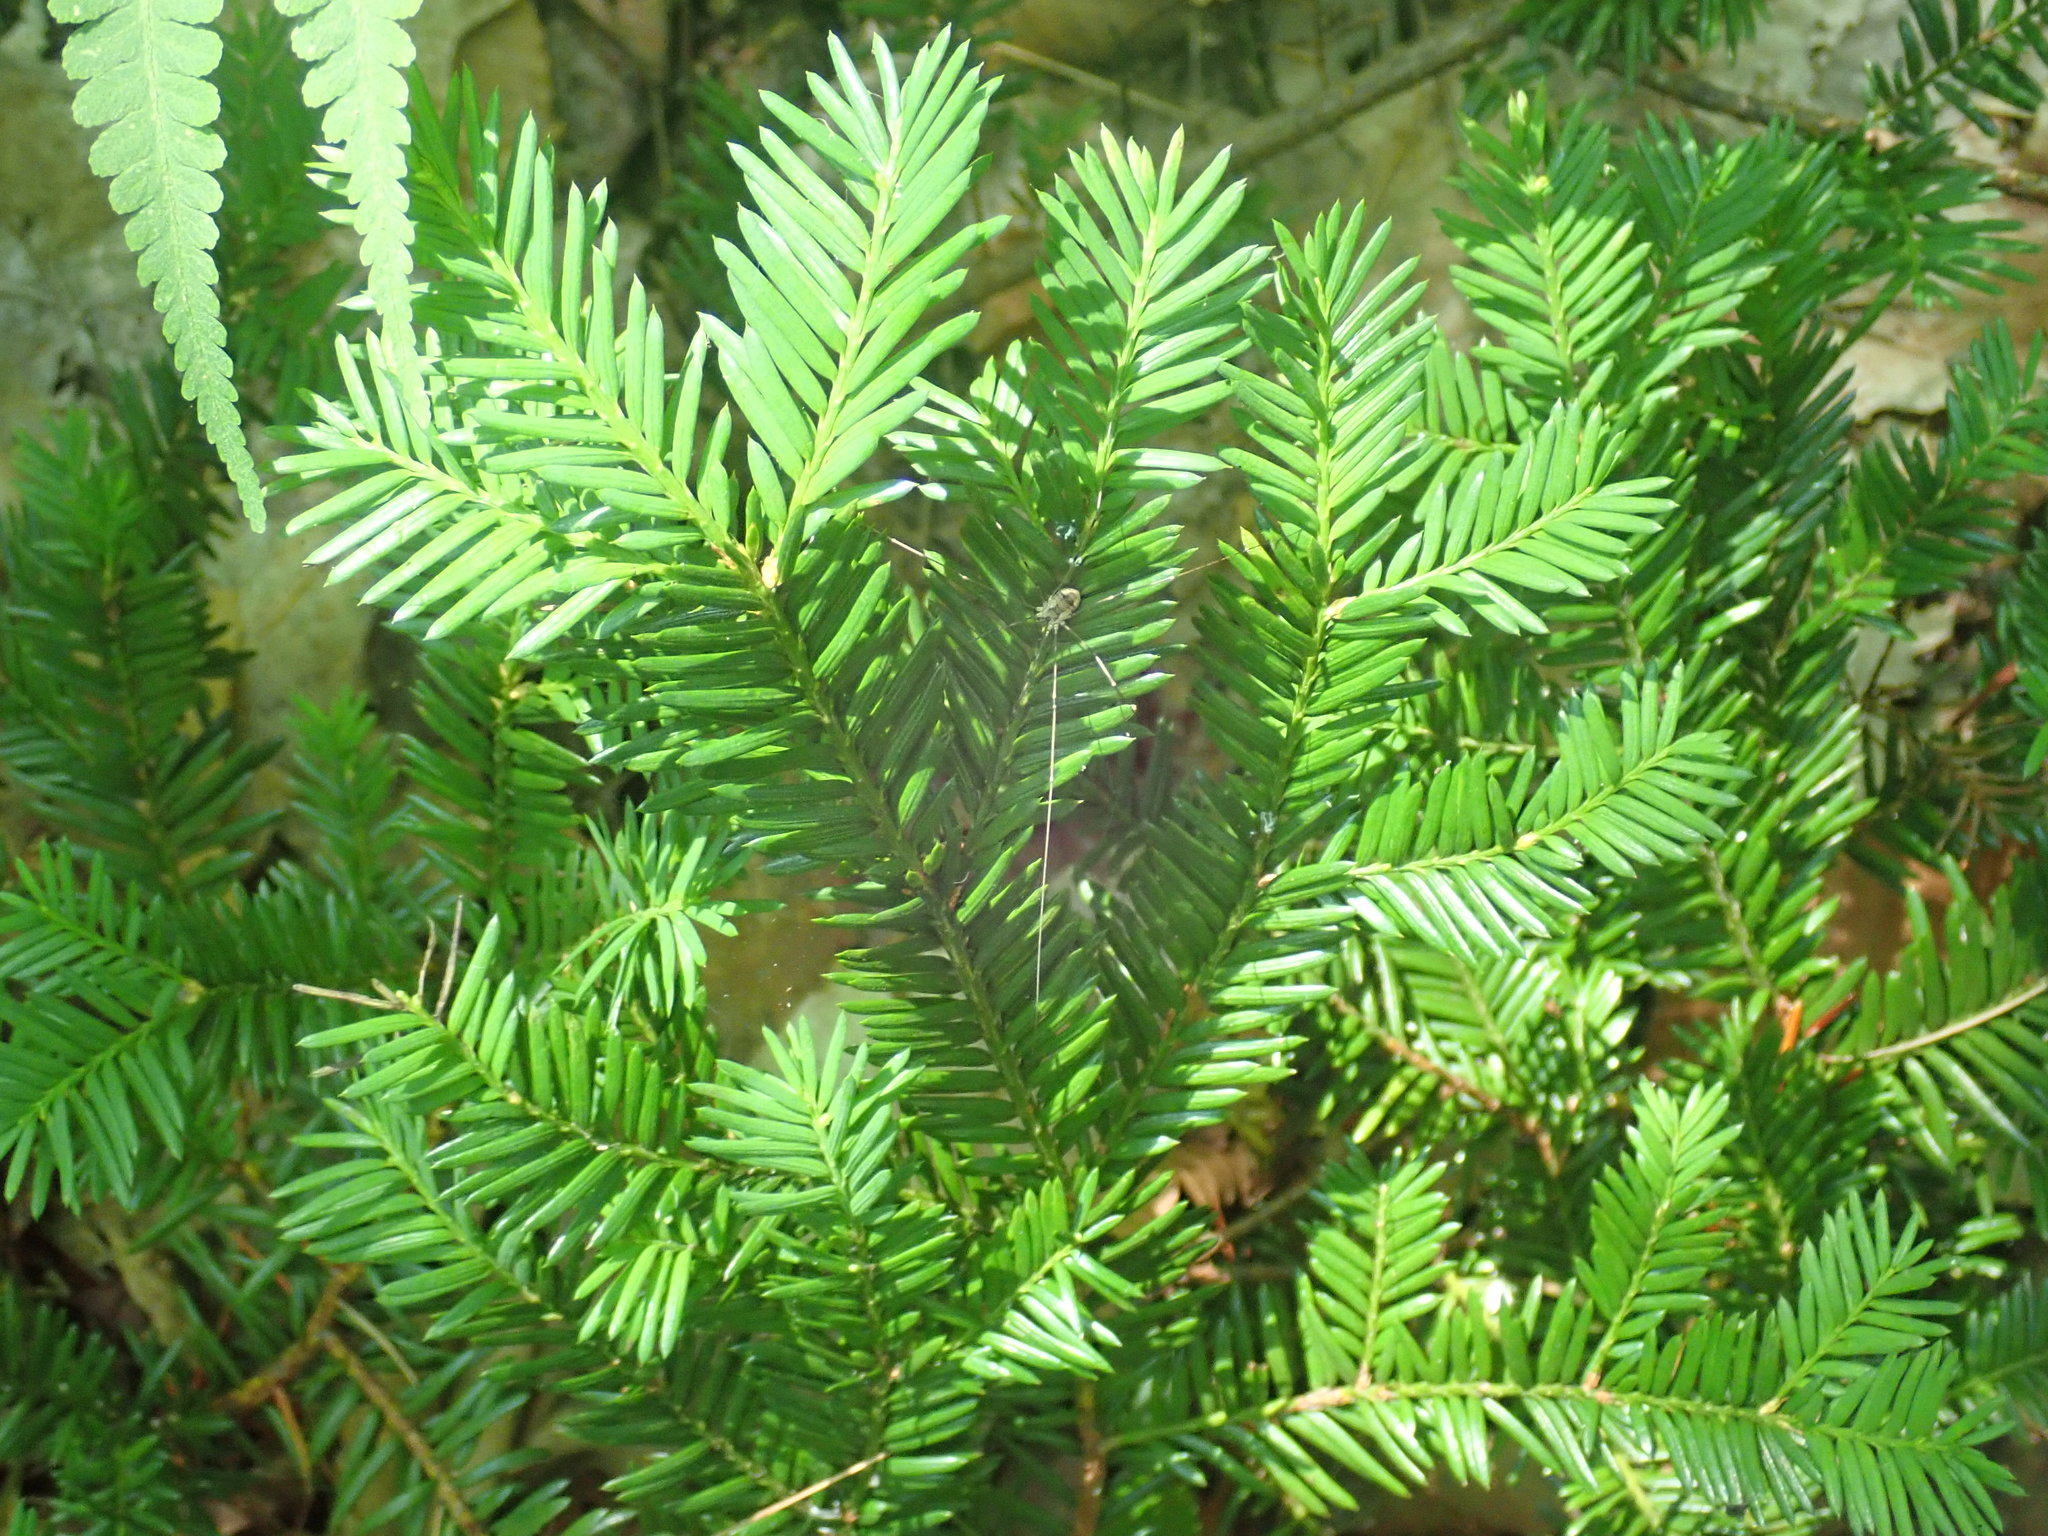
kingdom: Plantae
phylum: Tracheophyta
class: Pinopsida
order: Pinales
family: Taxaceae
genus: Taxus
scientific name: Taxus canadensis
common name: American yew
